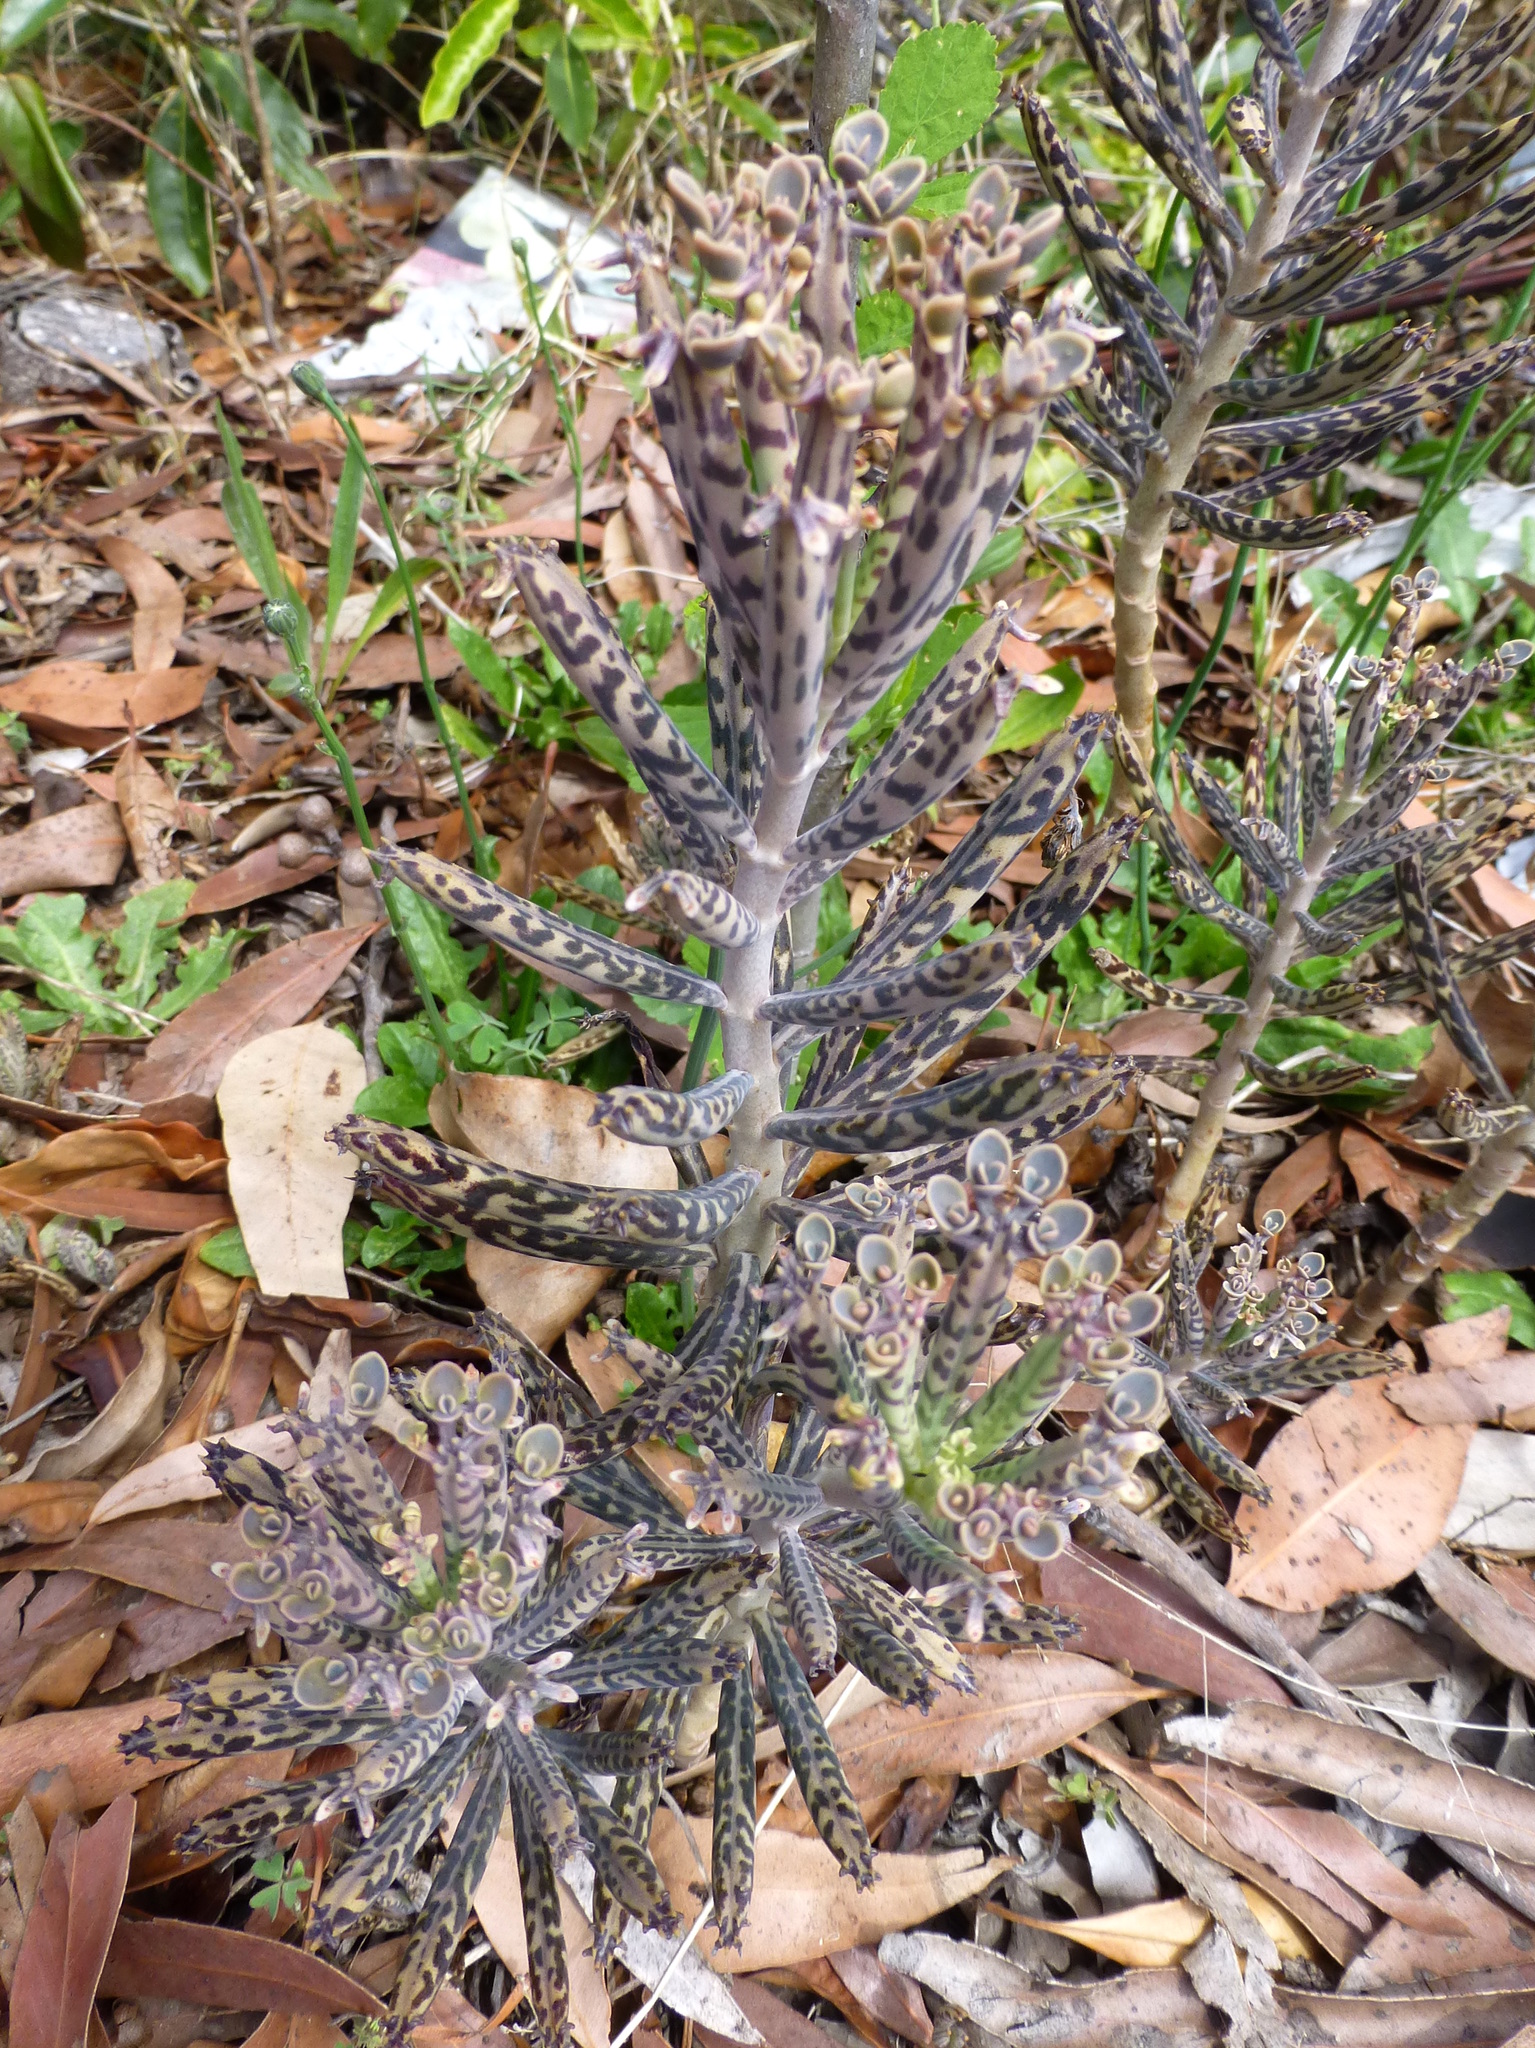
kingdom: Plantae
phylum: Tracheophyta
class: Magnoliopsida
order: Saxifragales
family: Crassulaceae
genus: Kalanchoe
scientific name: Kalanchoe delagoensis
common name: Chandelier plant
